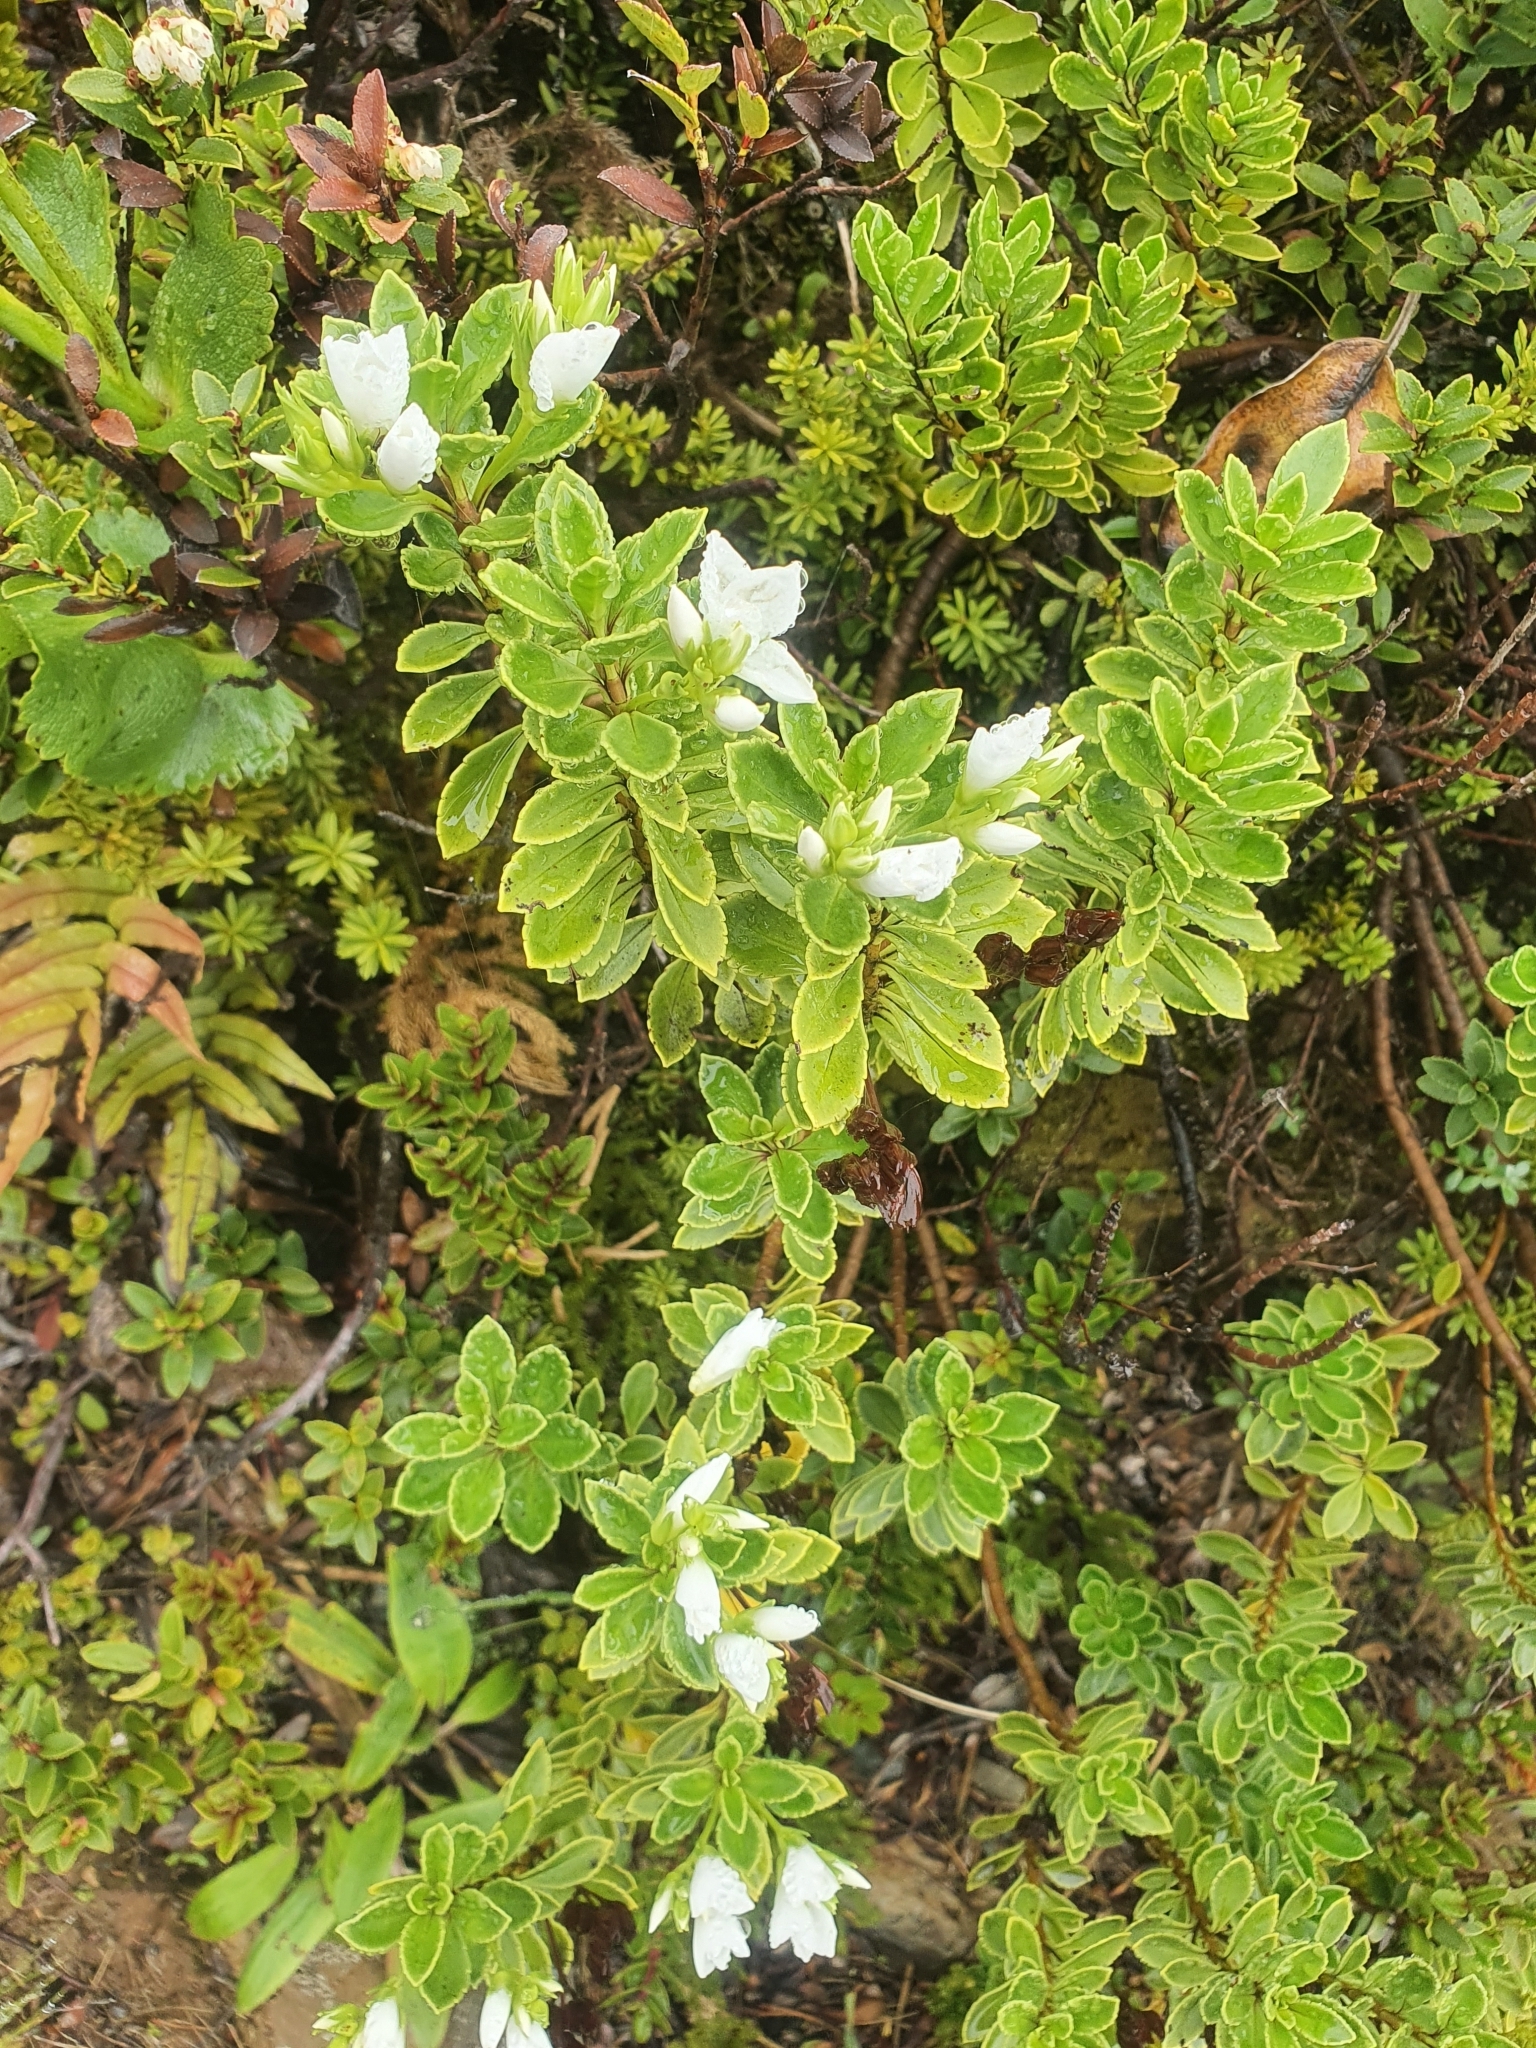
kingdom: Plantae
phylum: Tracheophyta
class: Magnoliopsida
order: Lamiales
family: Plantaginaceae
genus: Veronica
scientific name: Veronica macrantha
